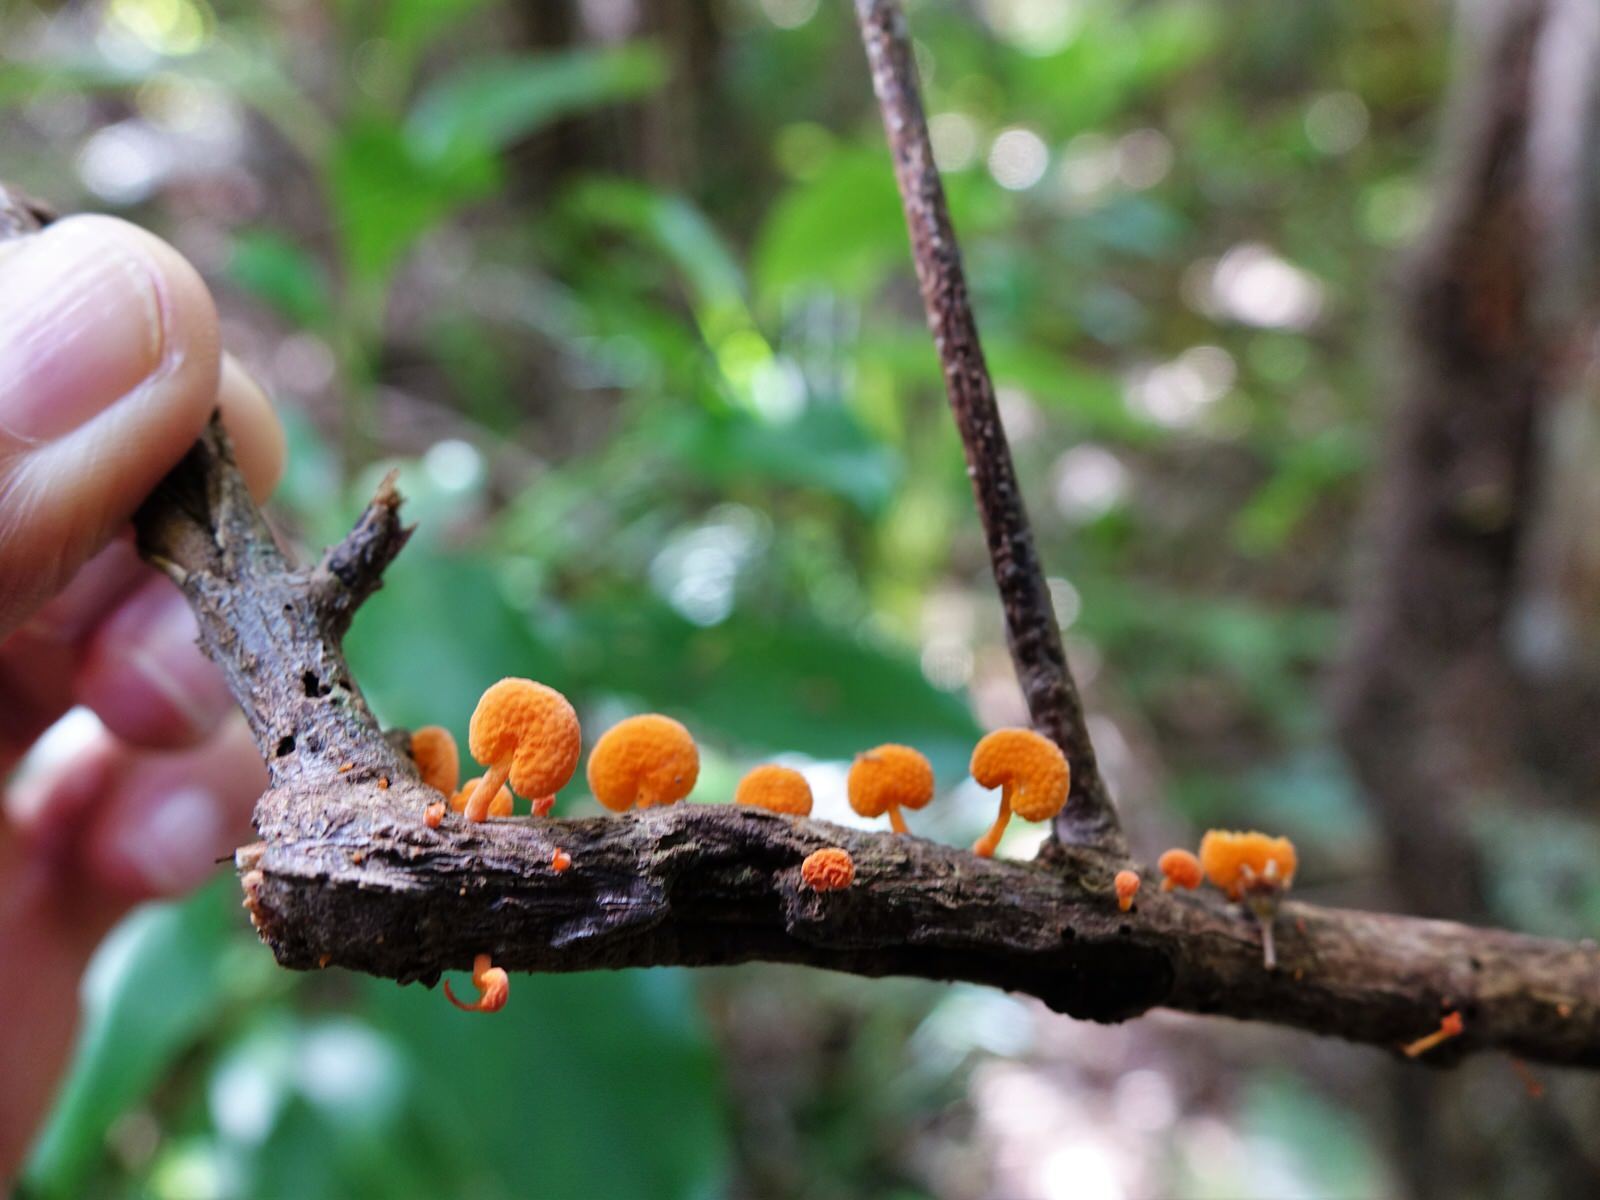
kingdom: Fungi
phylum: Basidiomycota
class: Agaricomycetes
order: Agaricales
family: Mycenaceae
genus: Favolaschia
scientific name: Favolaschia claudopus
